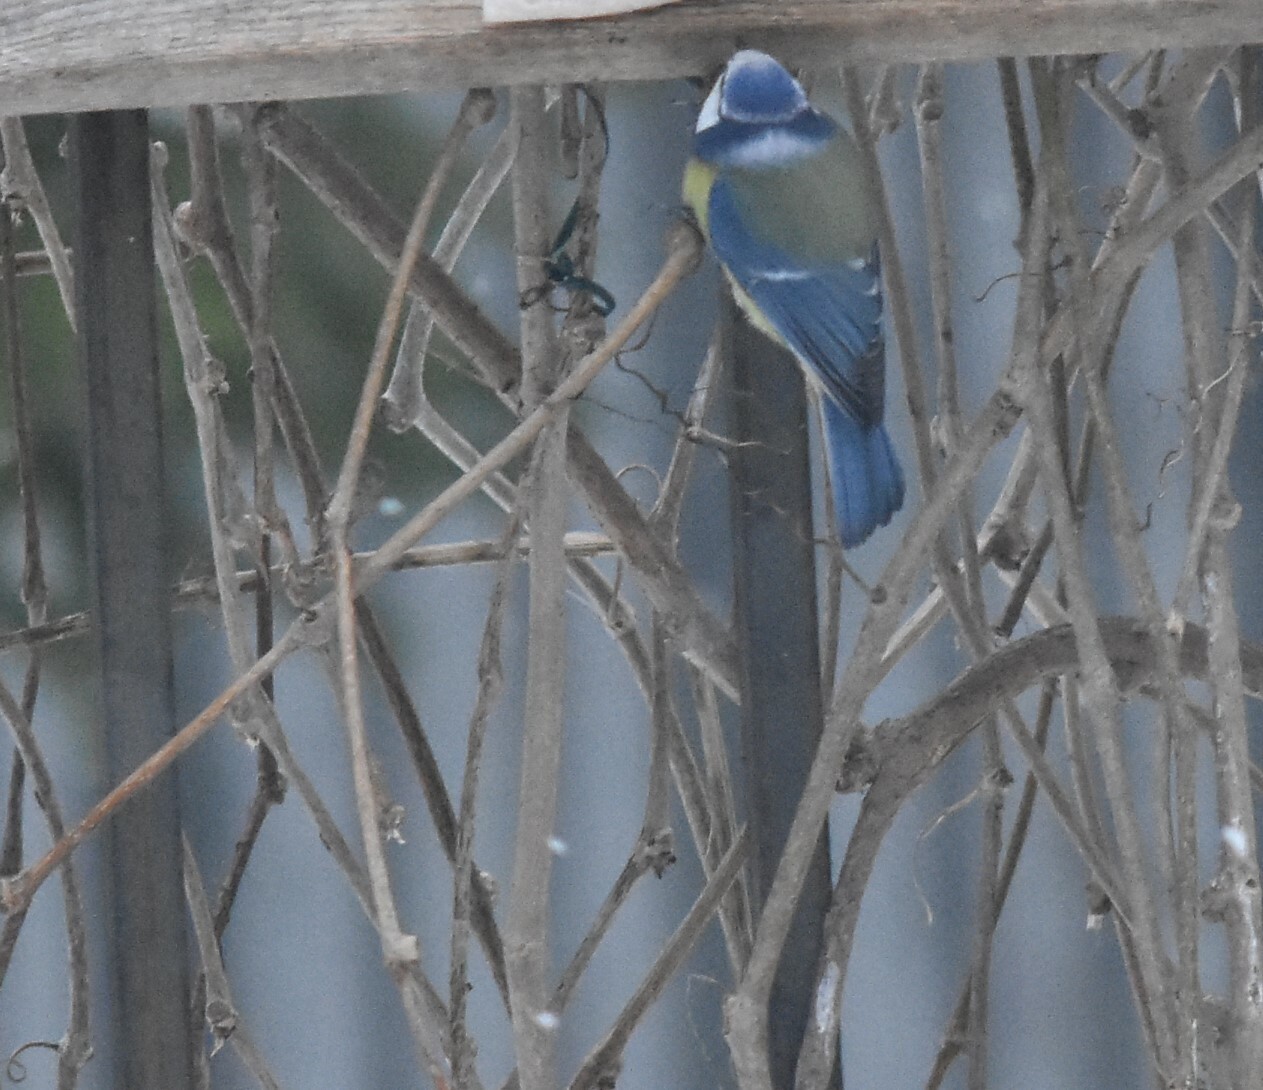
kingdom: Animalia
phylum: Chordata
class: Aves
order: Passeriformes
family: Paridae
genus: Cyanistes
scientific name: Cyanistes caeruleus
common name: Eurasian blue tit
